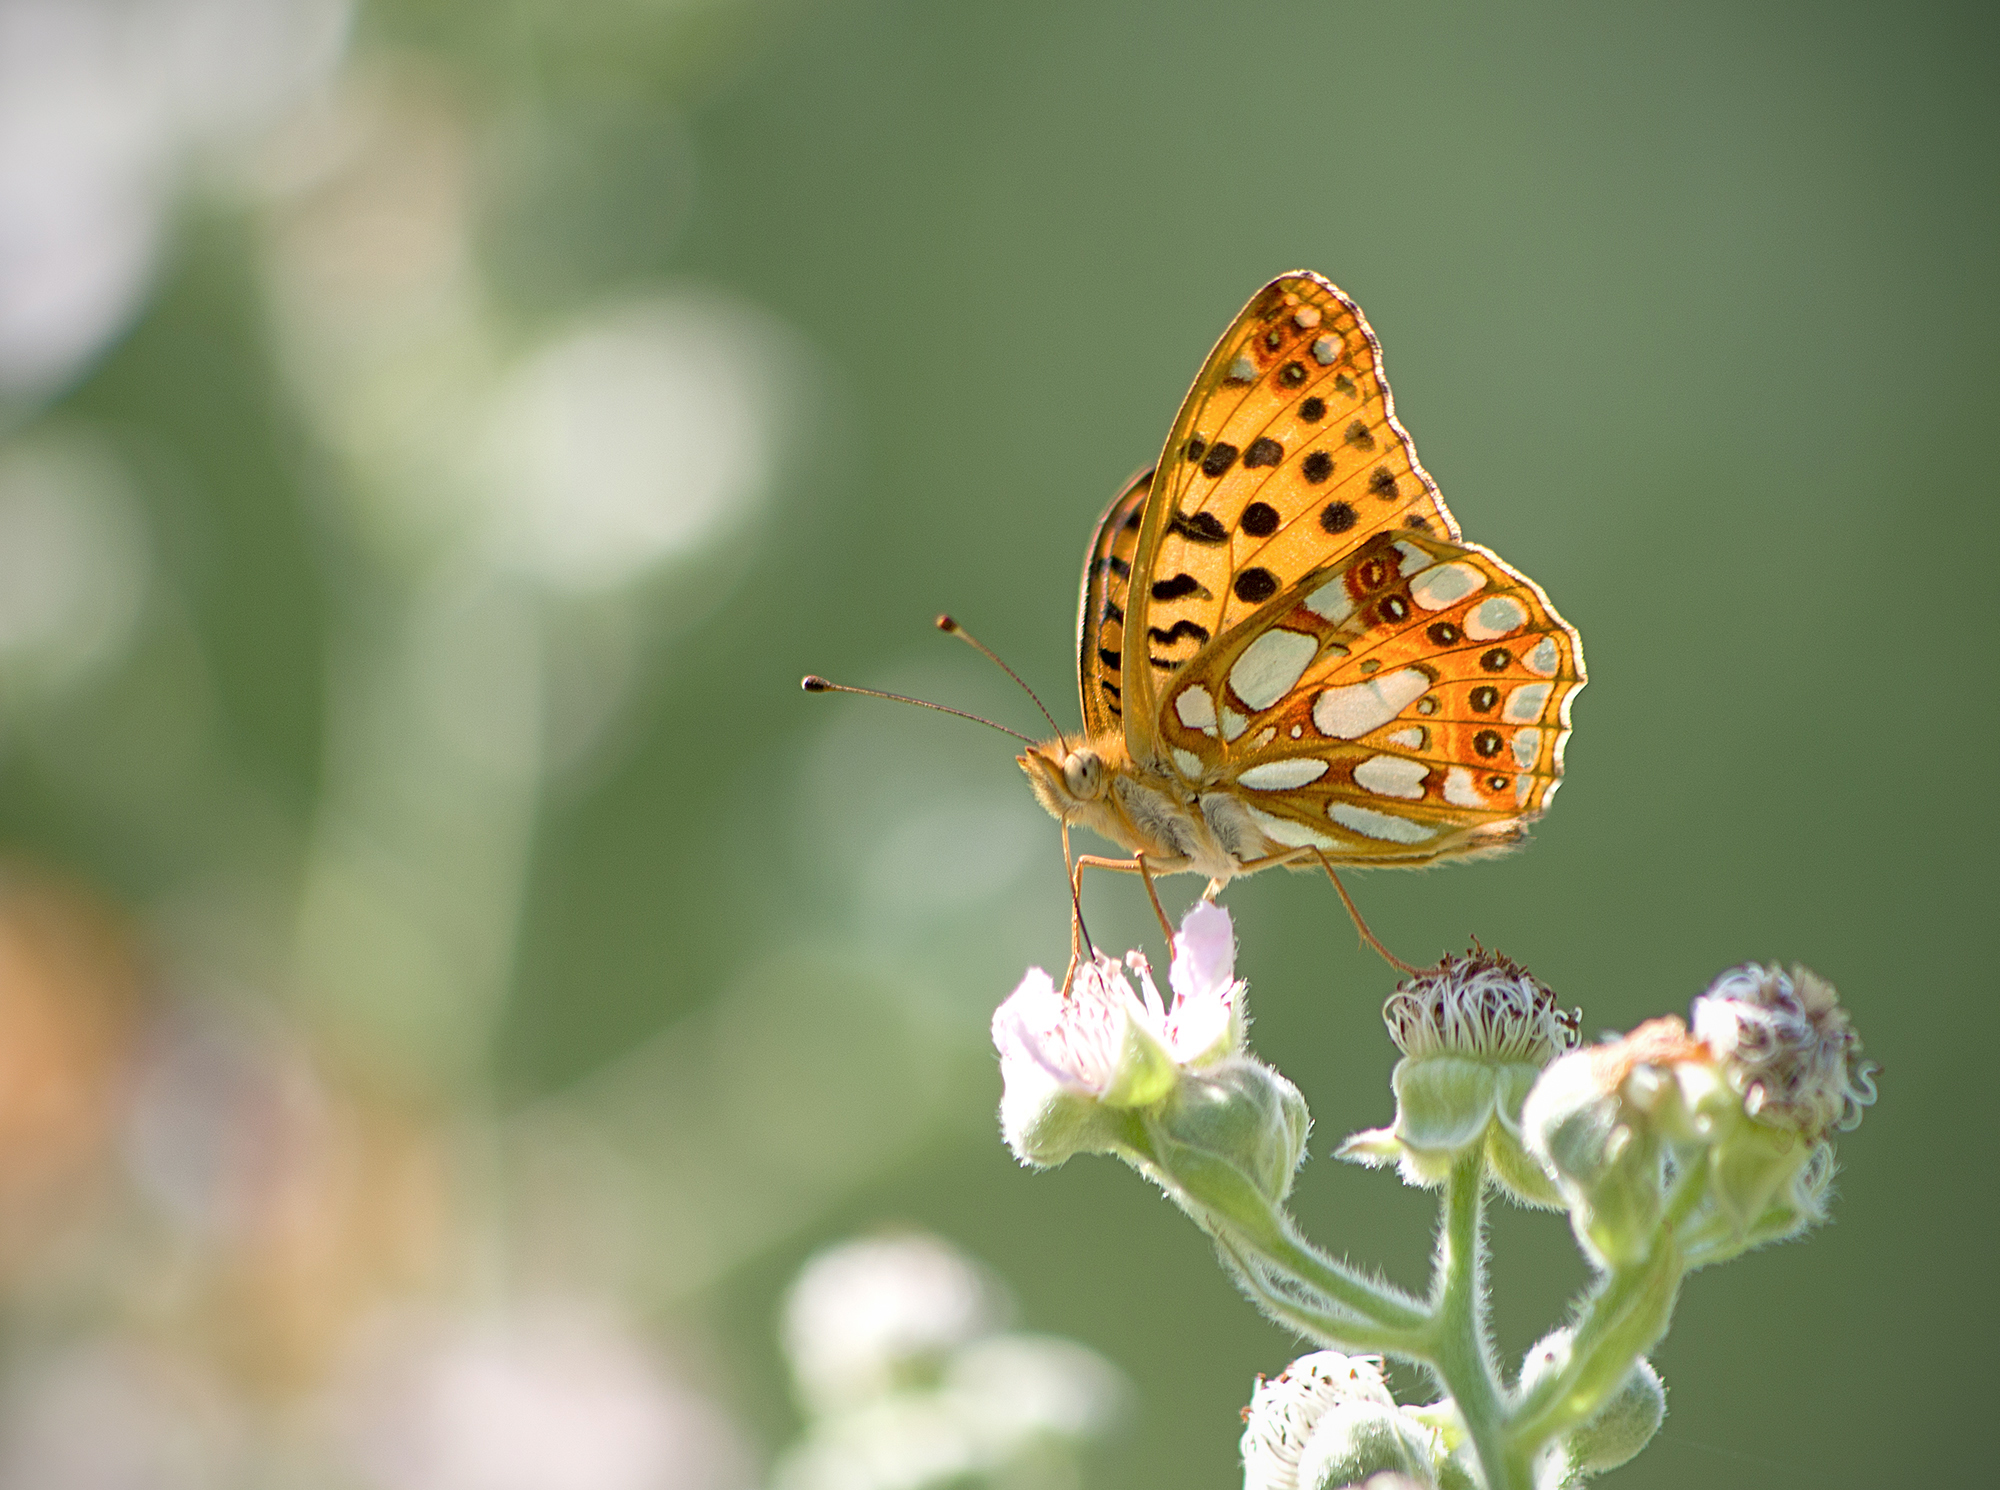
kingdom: Animalia
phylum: Arthropoda
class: Insecta
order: Lepidoptera
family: Nymphalidae
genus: Issoria
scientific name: Issoria lathonia
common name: Queen of spain fritillary
